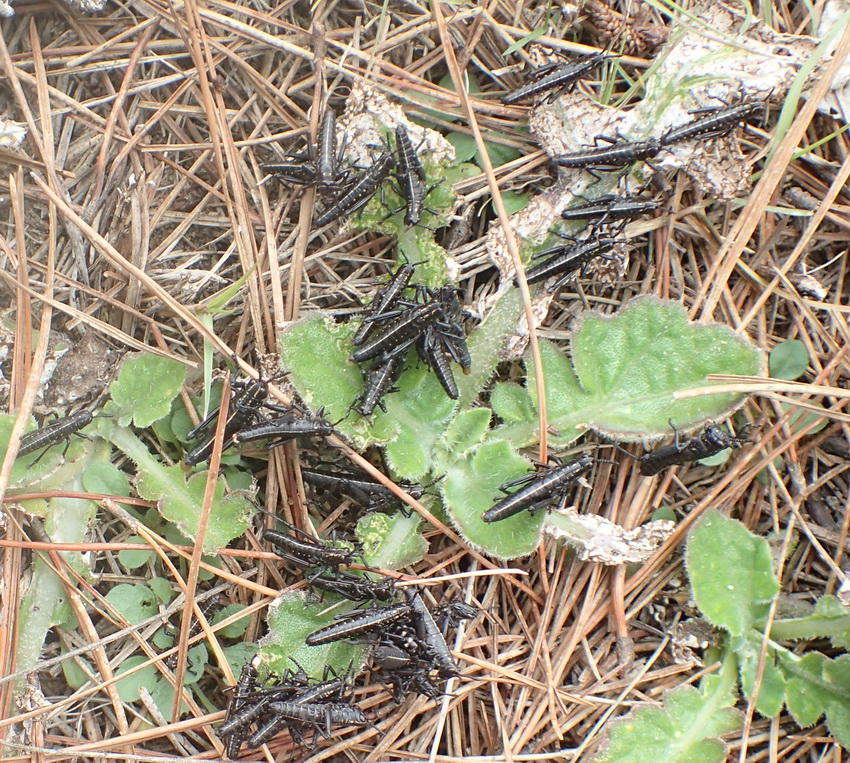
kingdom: Animalia
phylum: Arthropoda
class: Insecta
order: Orthoptera
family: Pyrgomorphidae
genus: Phymateus
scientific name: Phymateus leprosus
